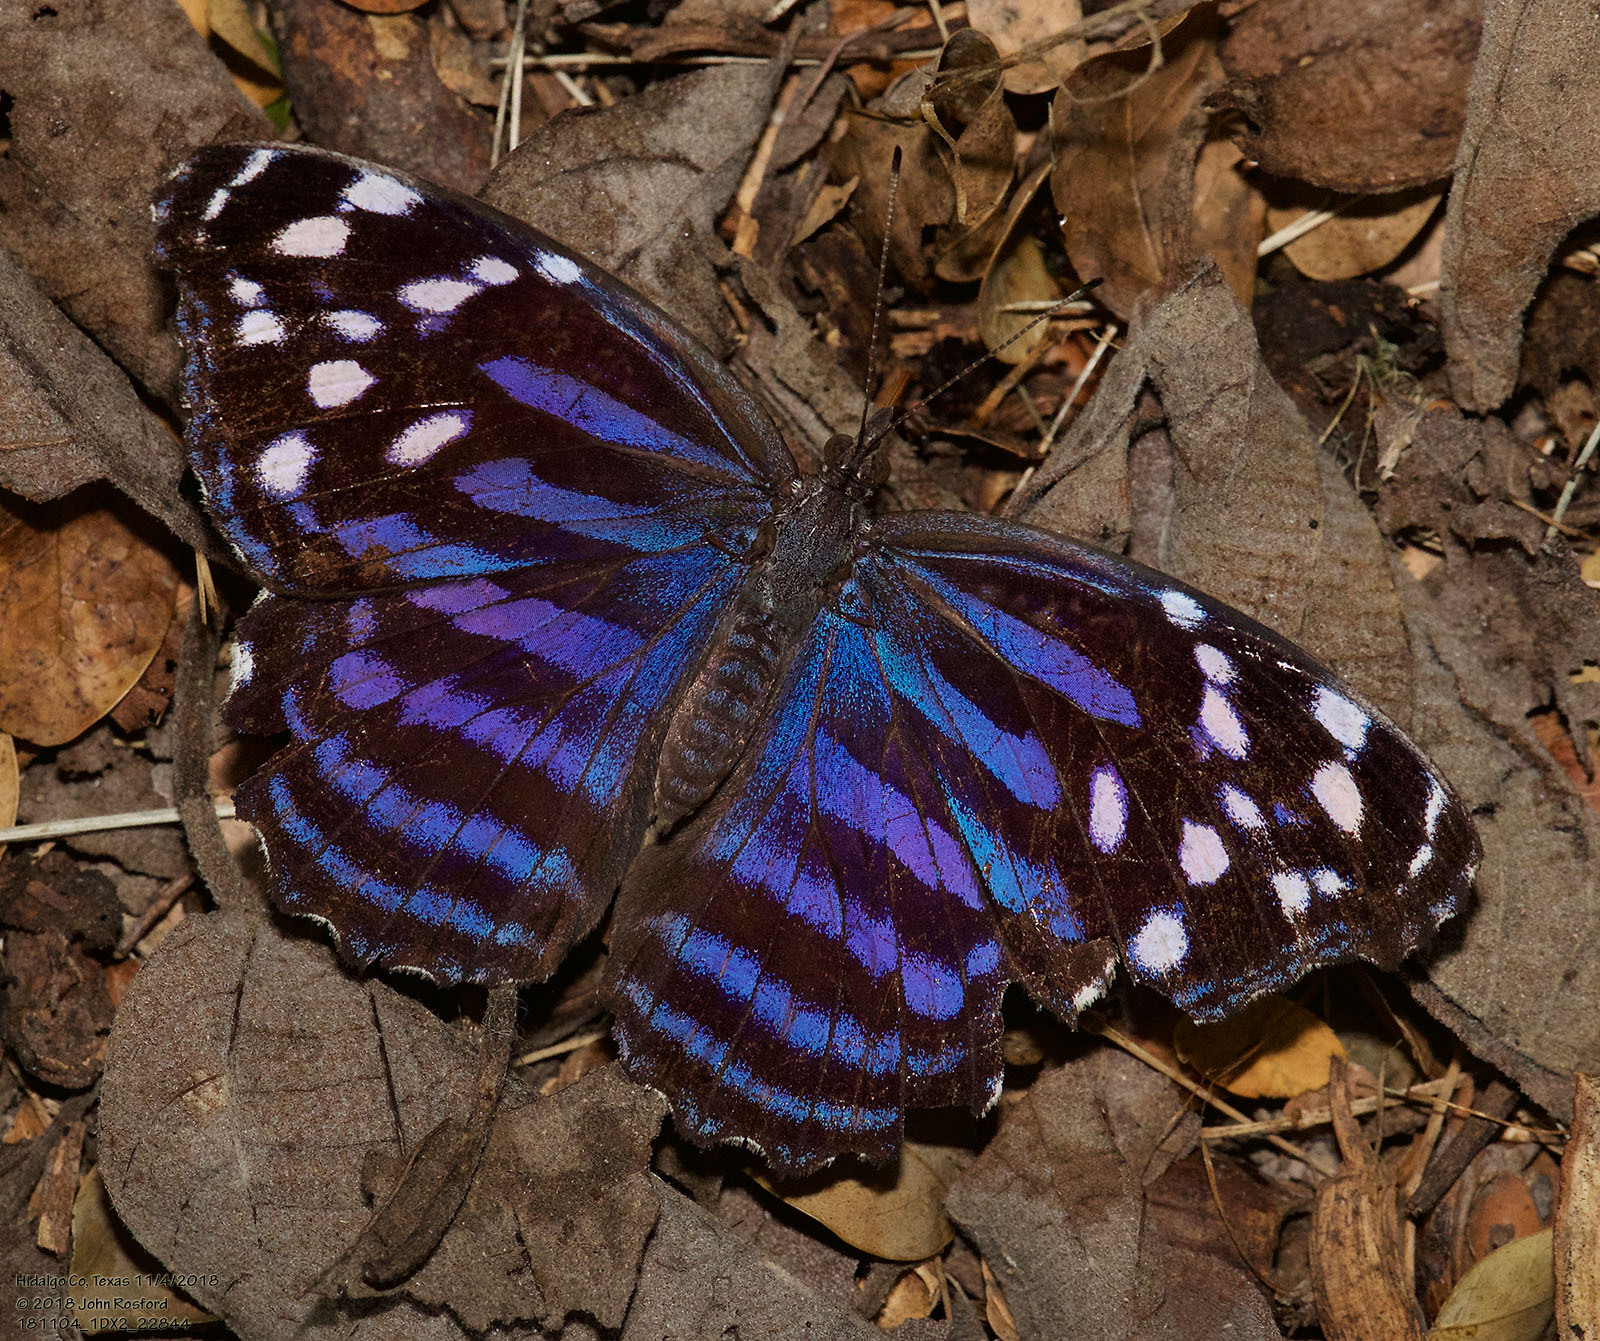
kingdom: Animalia
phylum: Arthropoda
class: Insecta
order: Lepidoptera
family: Nymphalidae
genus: Myscelia
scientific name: Myscelia ethusa
